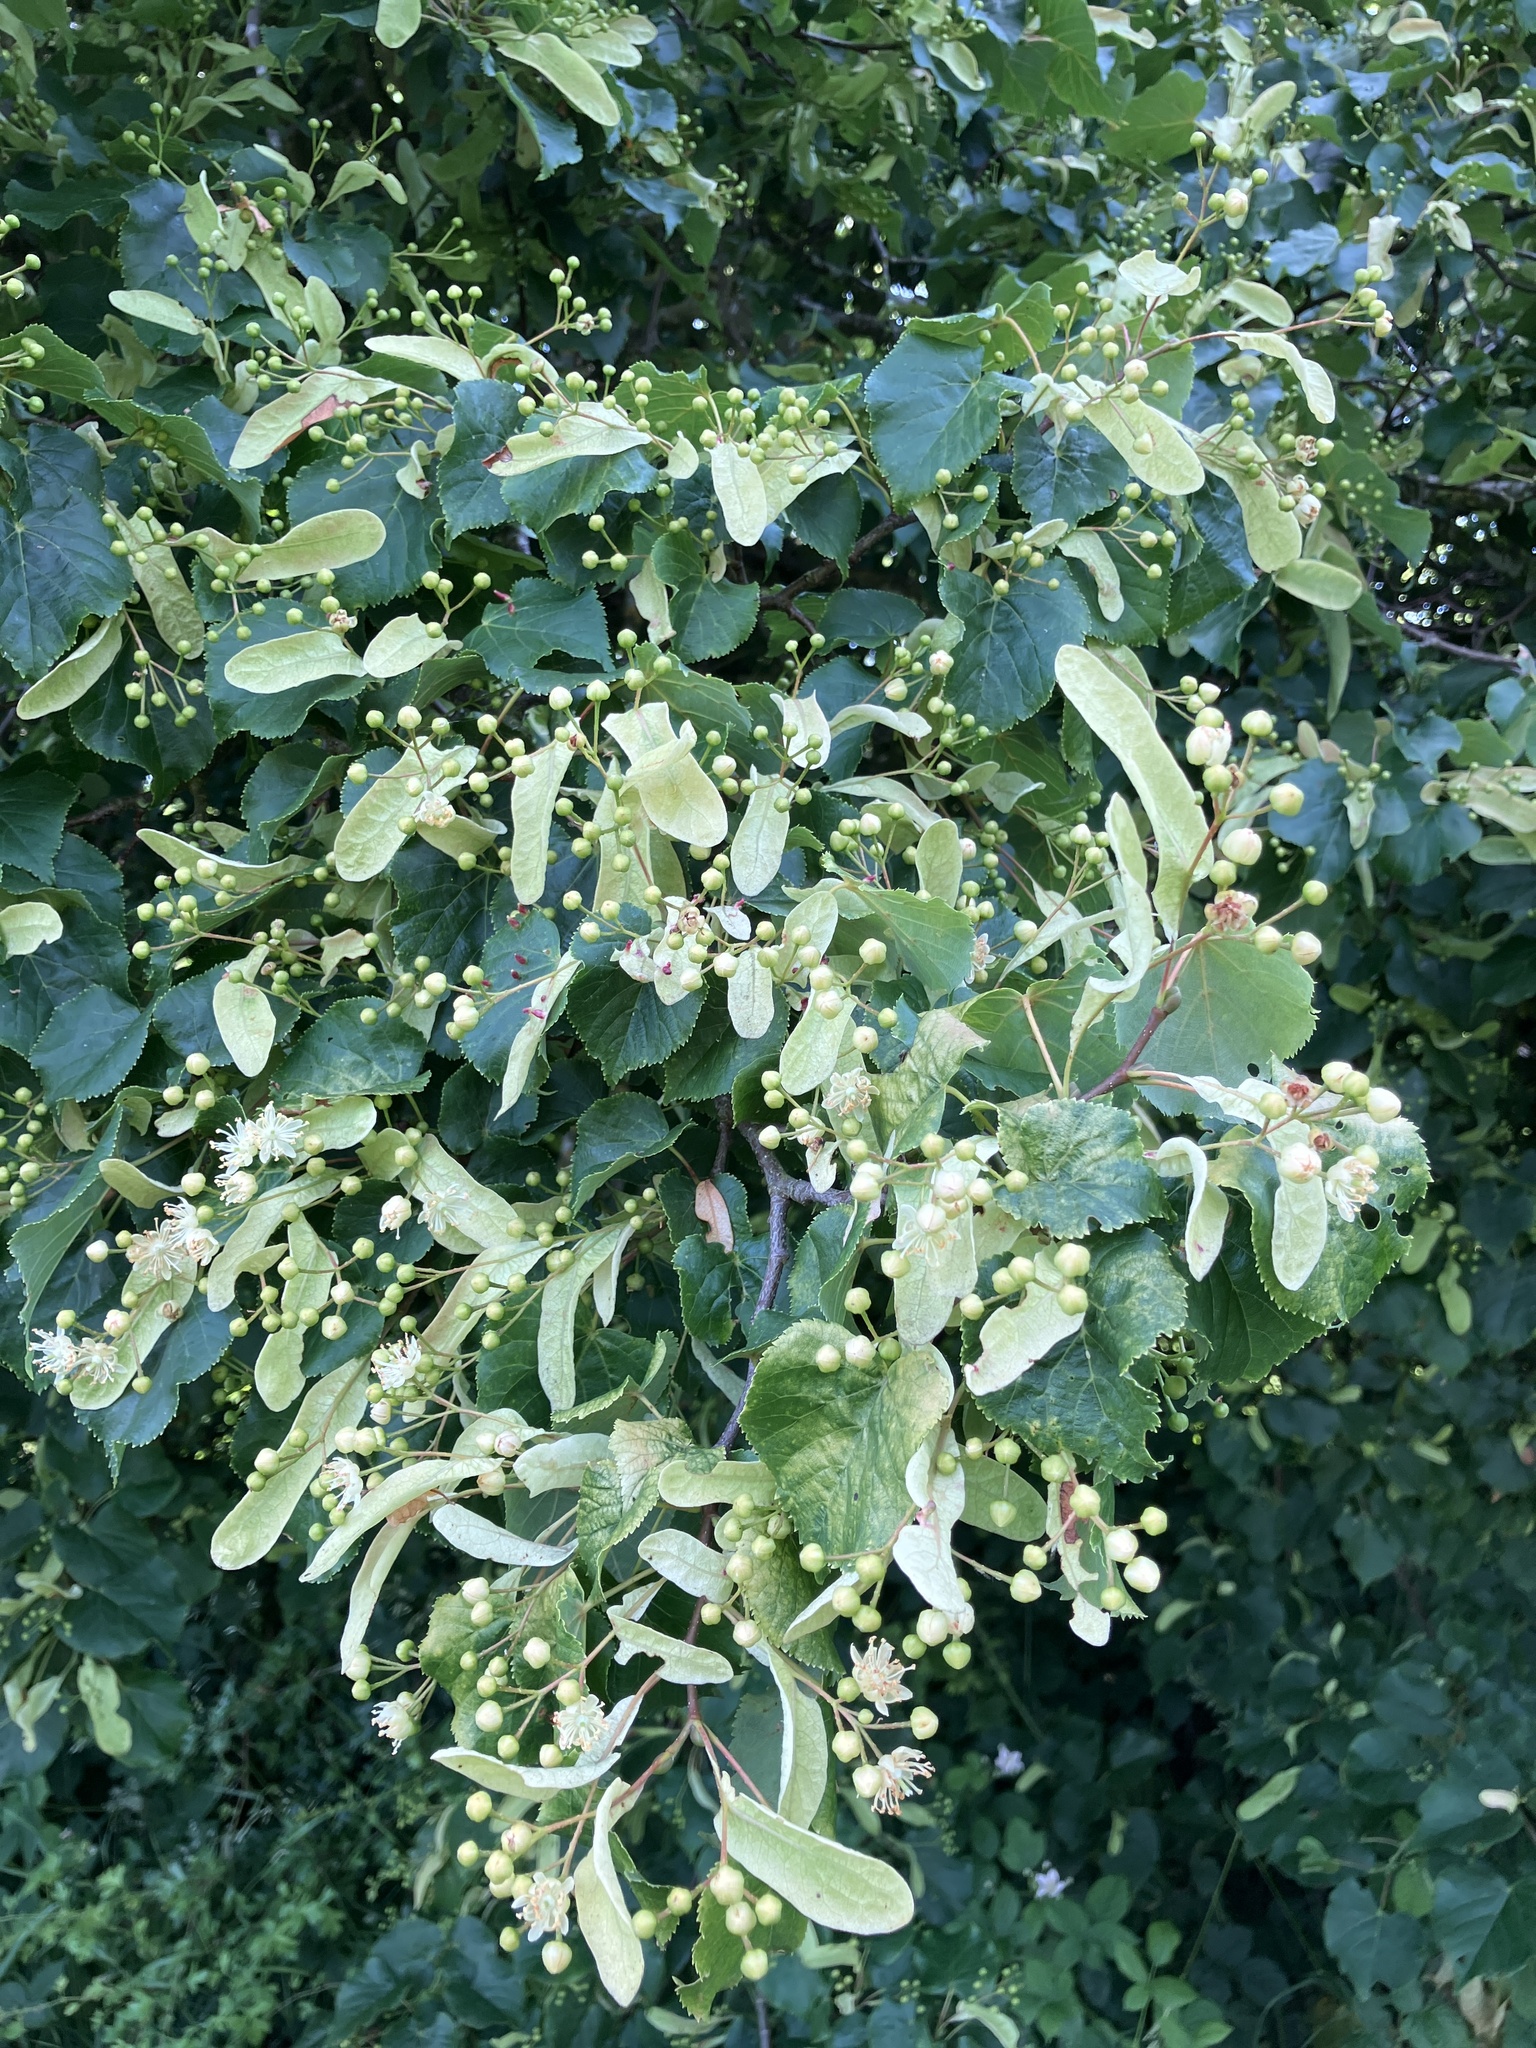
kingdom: Plantae
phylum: Tracheophyta
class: Magnoliopsida
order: Malvales
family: Malvaceae
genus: Tilia
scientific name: Tilia cordata
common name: Small-leaved lime
